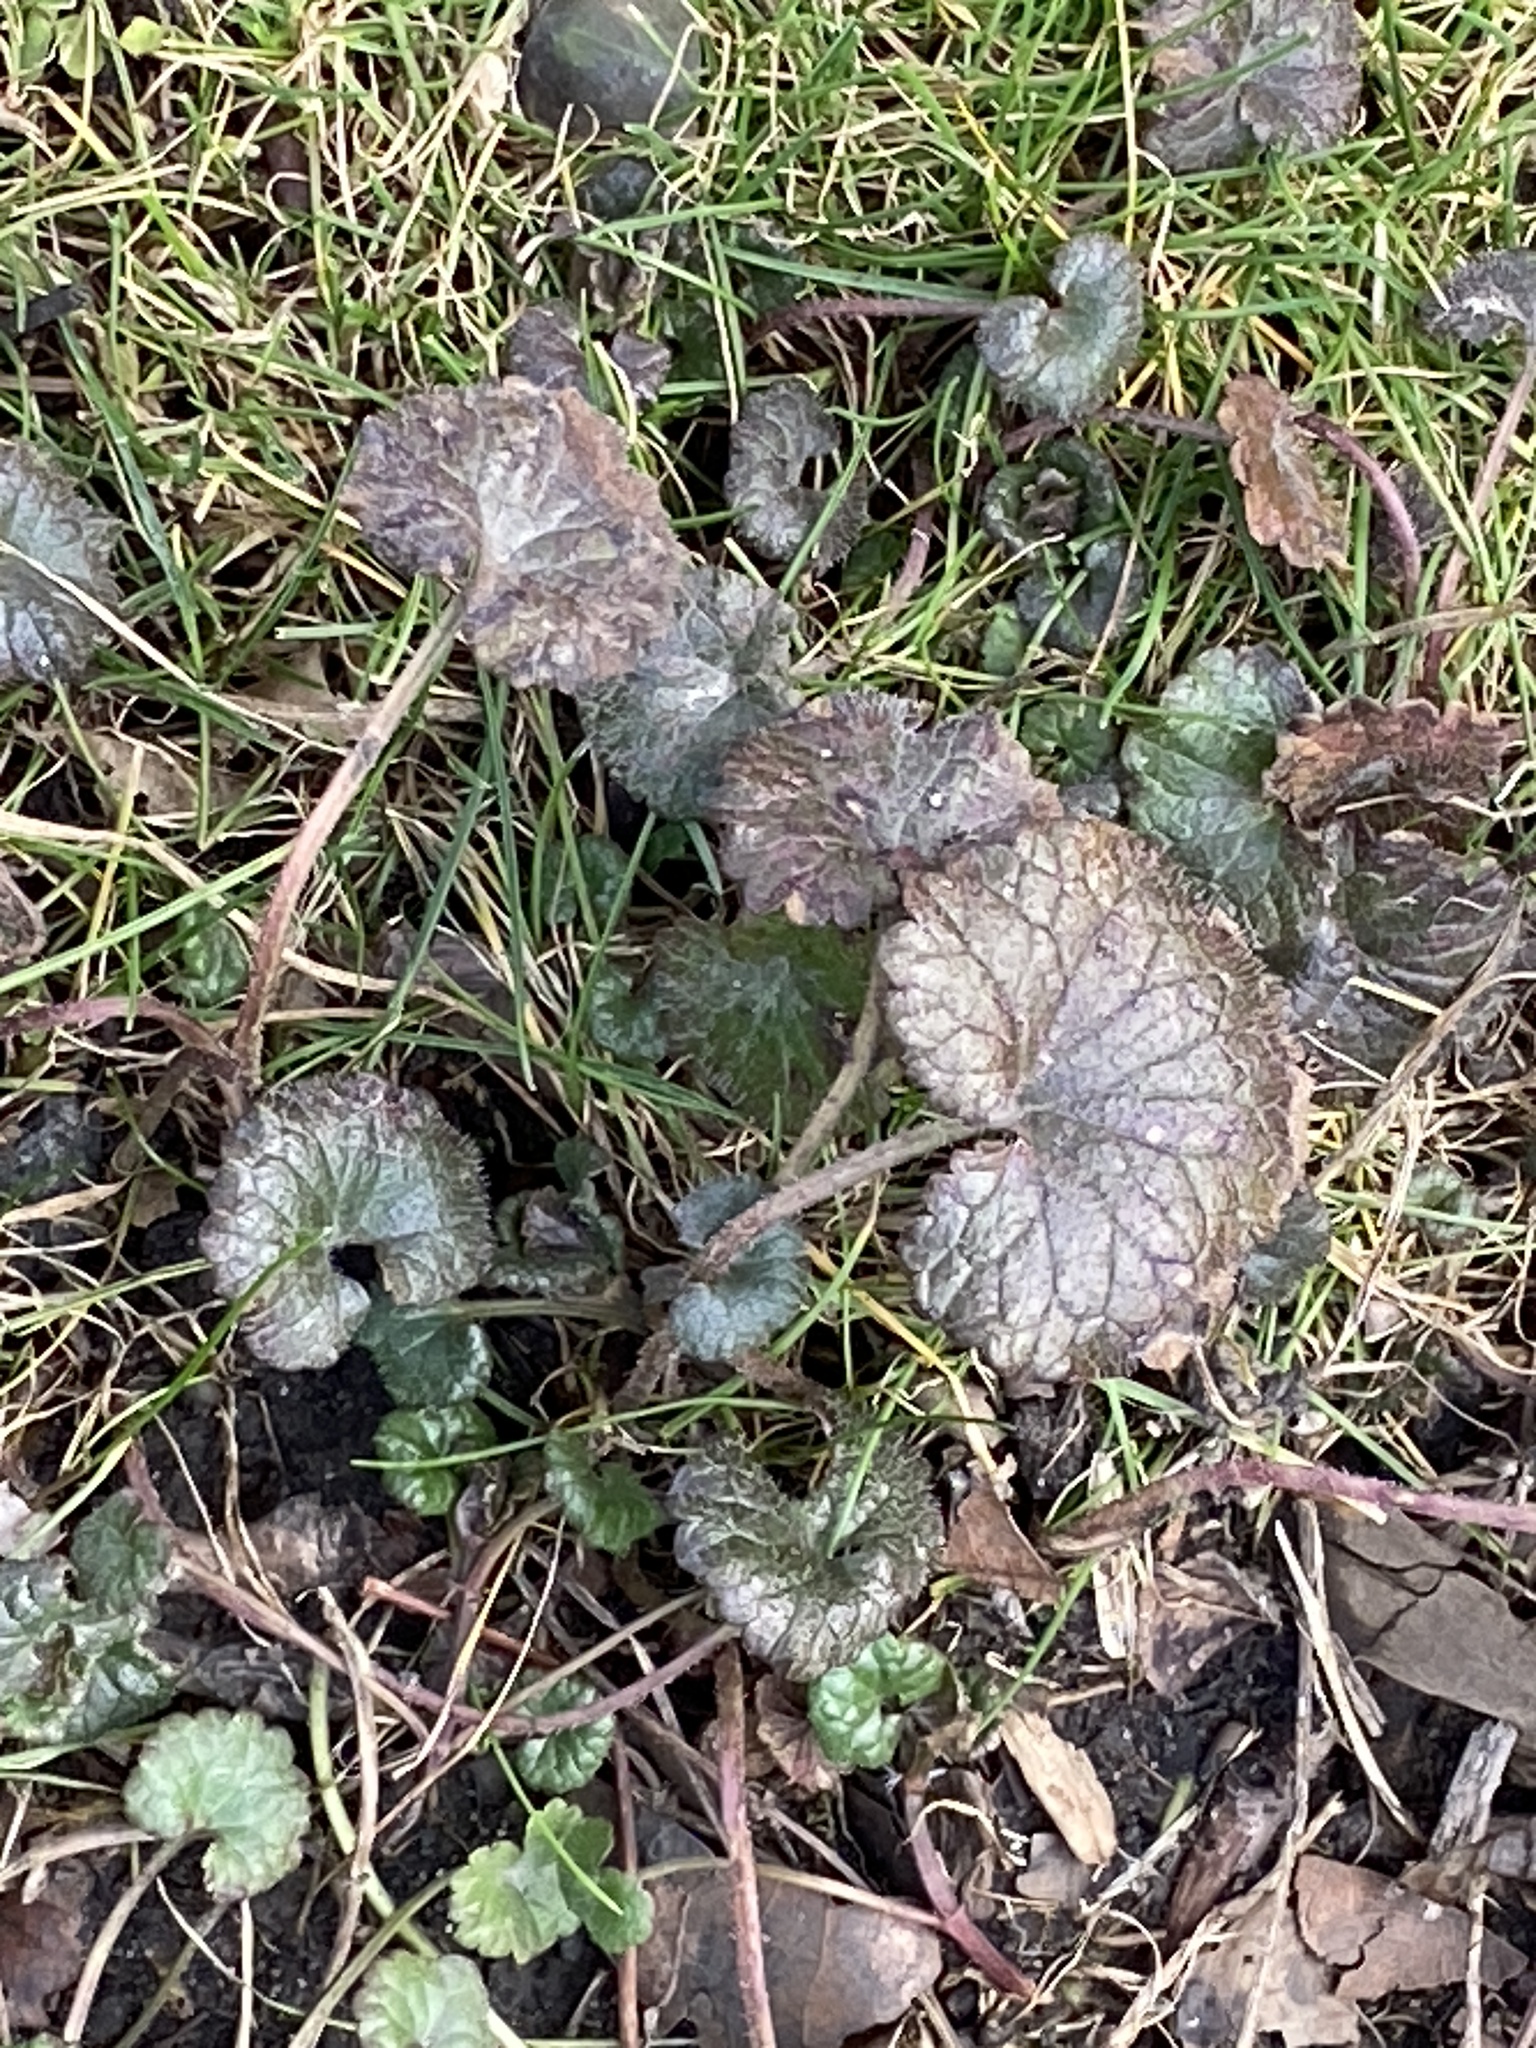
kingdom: Plantae
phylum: Tracheophyta
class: Magnoliopsida
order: Lamiales
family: Lamiaceae
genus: Glechoma
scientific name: Glechoma hederacea
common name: Ground ivy
